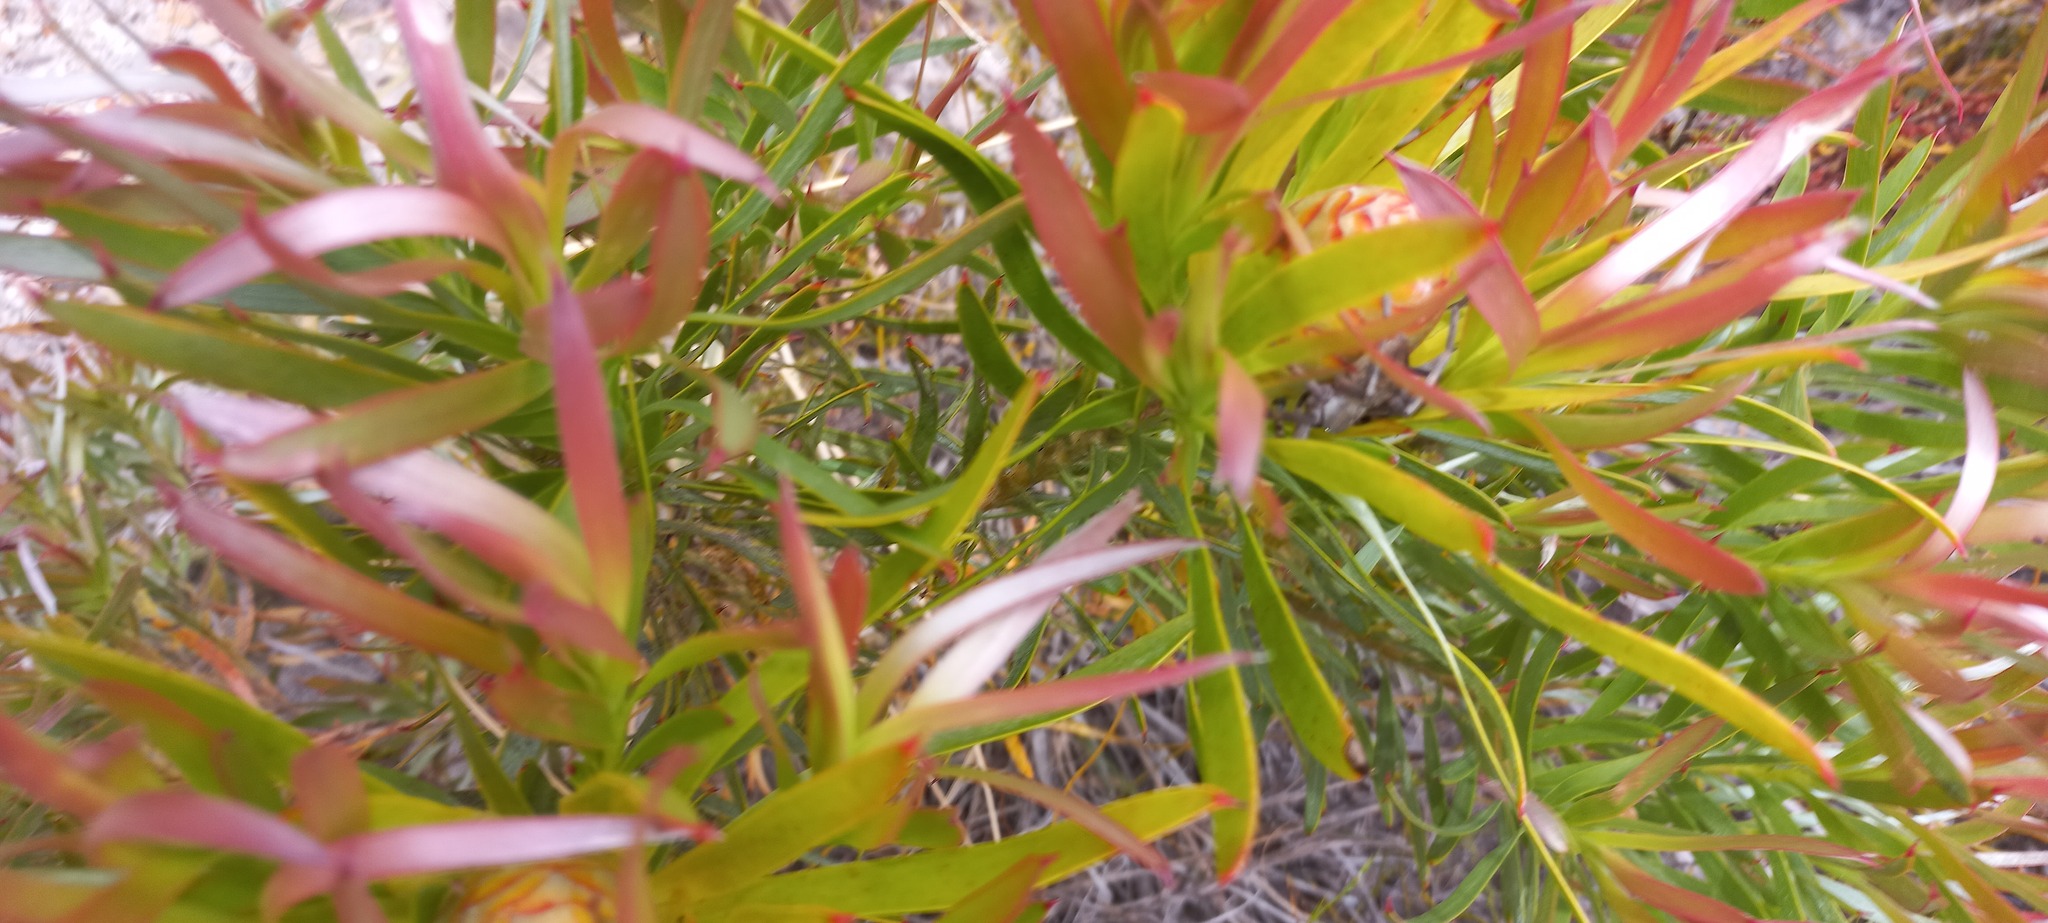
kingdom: Plantae
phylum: Tracheophyta
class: Magnoliopsida
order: Proteales
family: Proteaceae
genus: Leucadendron
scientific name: Leucadendron xanthoconus
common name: Sickle-leaf conebush
